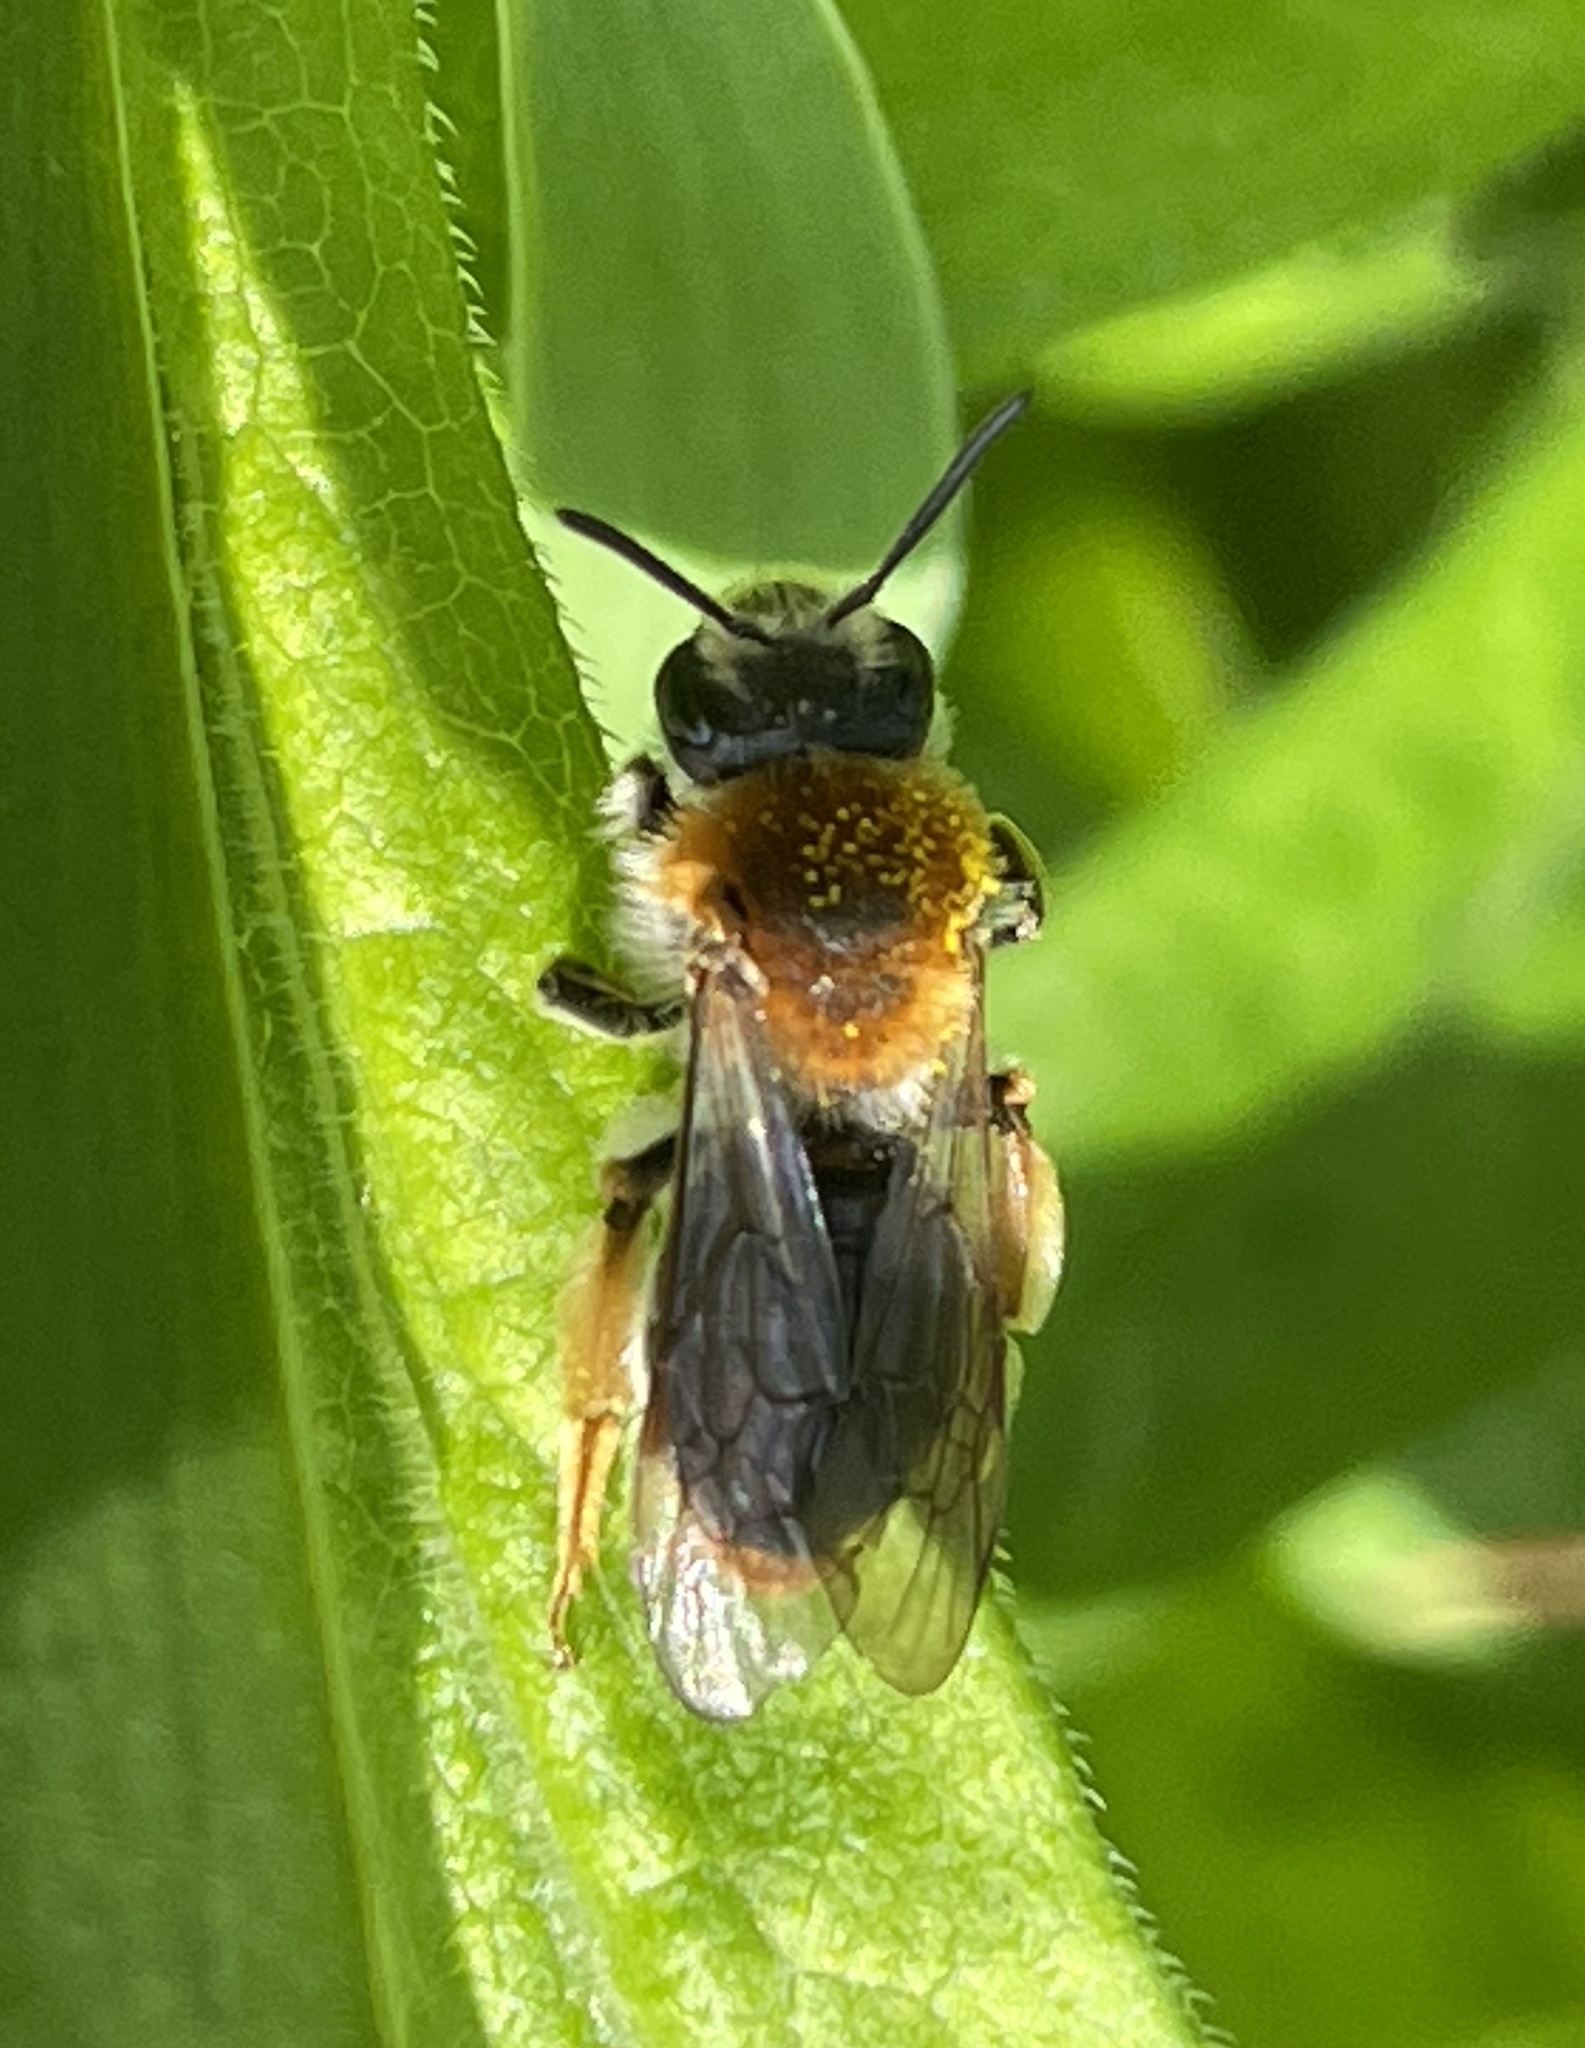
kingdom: Animalia
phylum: Arthropoda
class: Insecta
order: Hymenoptera
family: Andrenidae
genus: Andrena
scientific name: Andrena haemorrhoa
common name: Early mining bee
